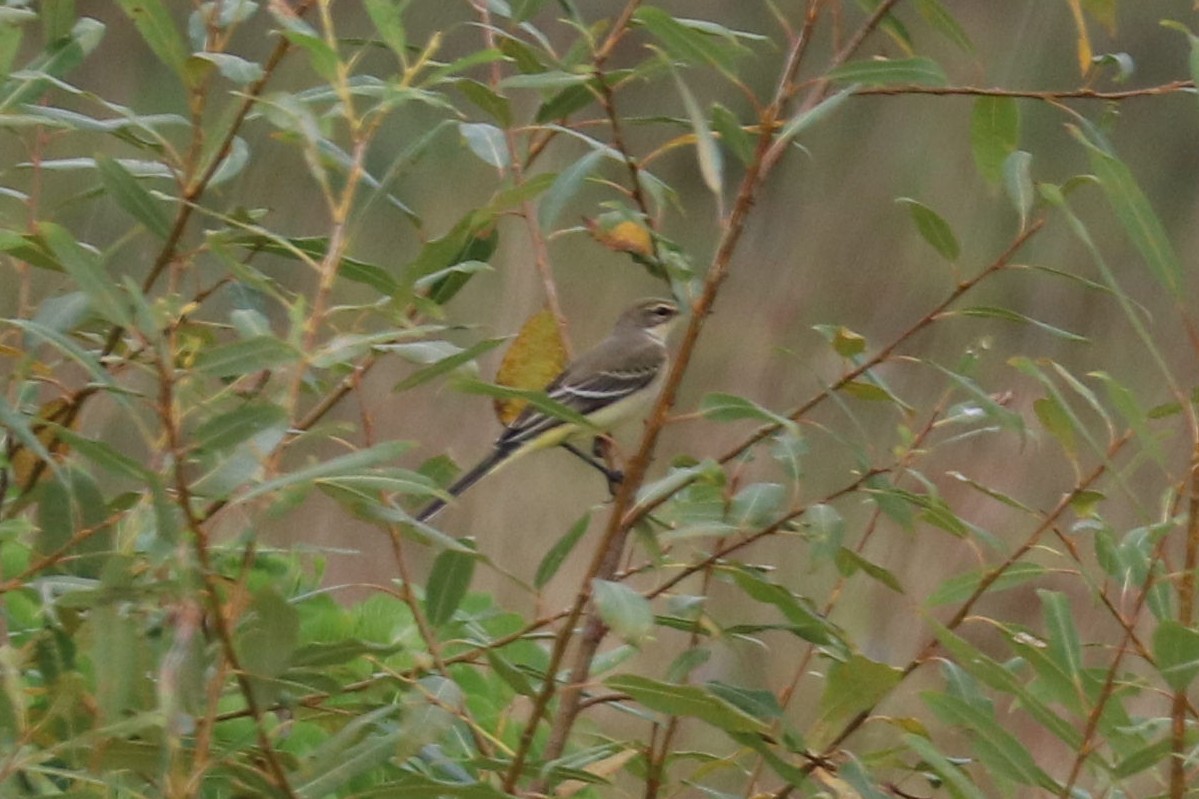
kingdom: Animalia
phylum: Chordata
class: Aves
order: Passeriformes
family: Motacillidae
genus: Motacilla
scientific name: Motacilla flava
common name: Western yellow wagtail
